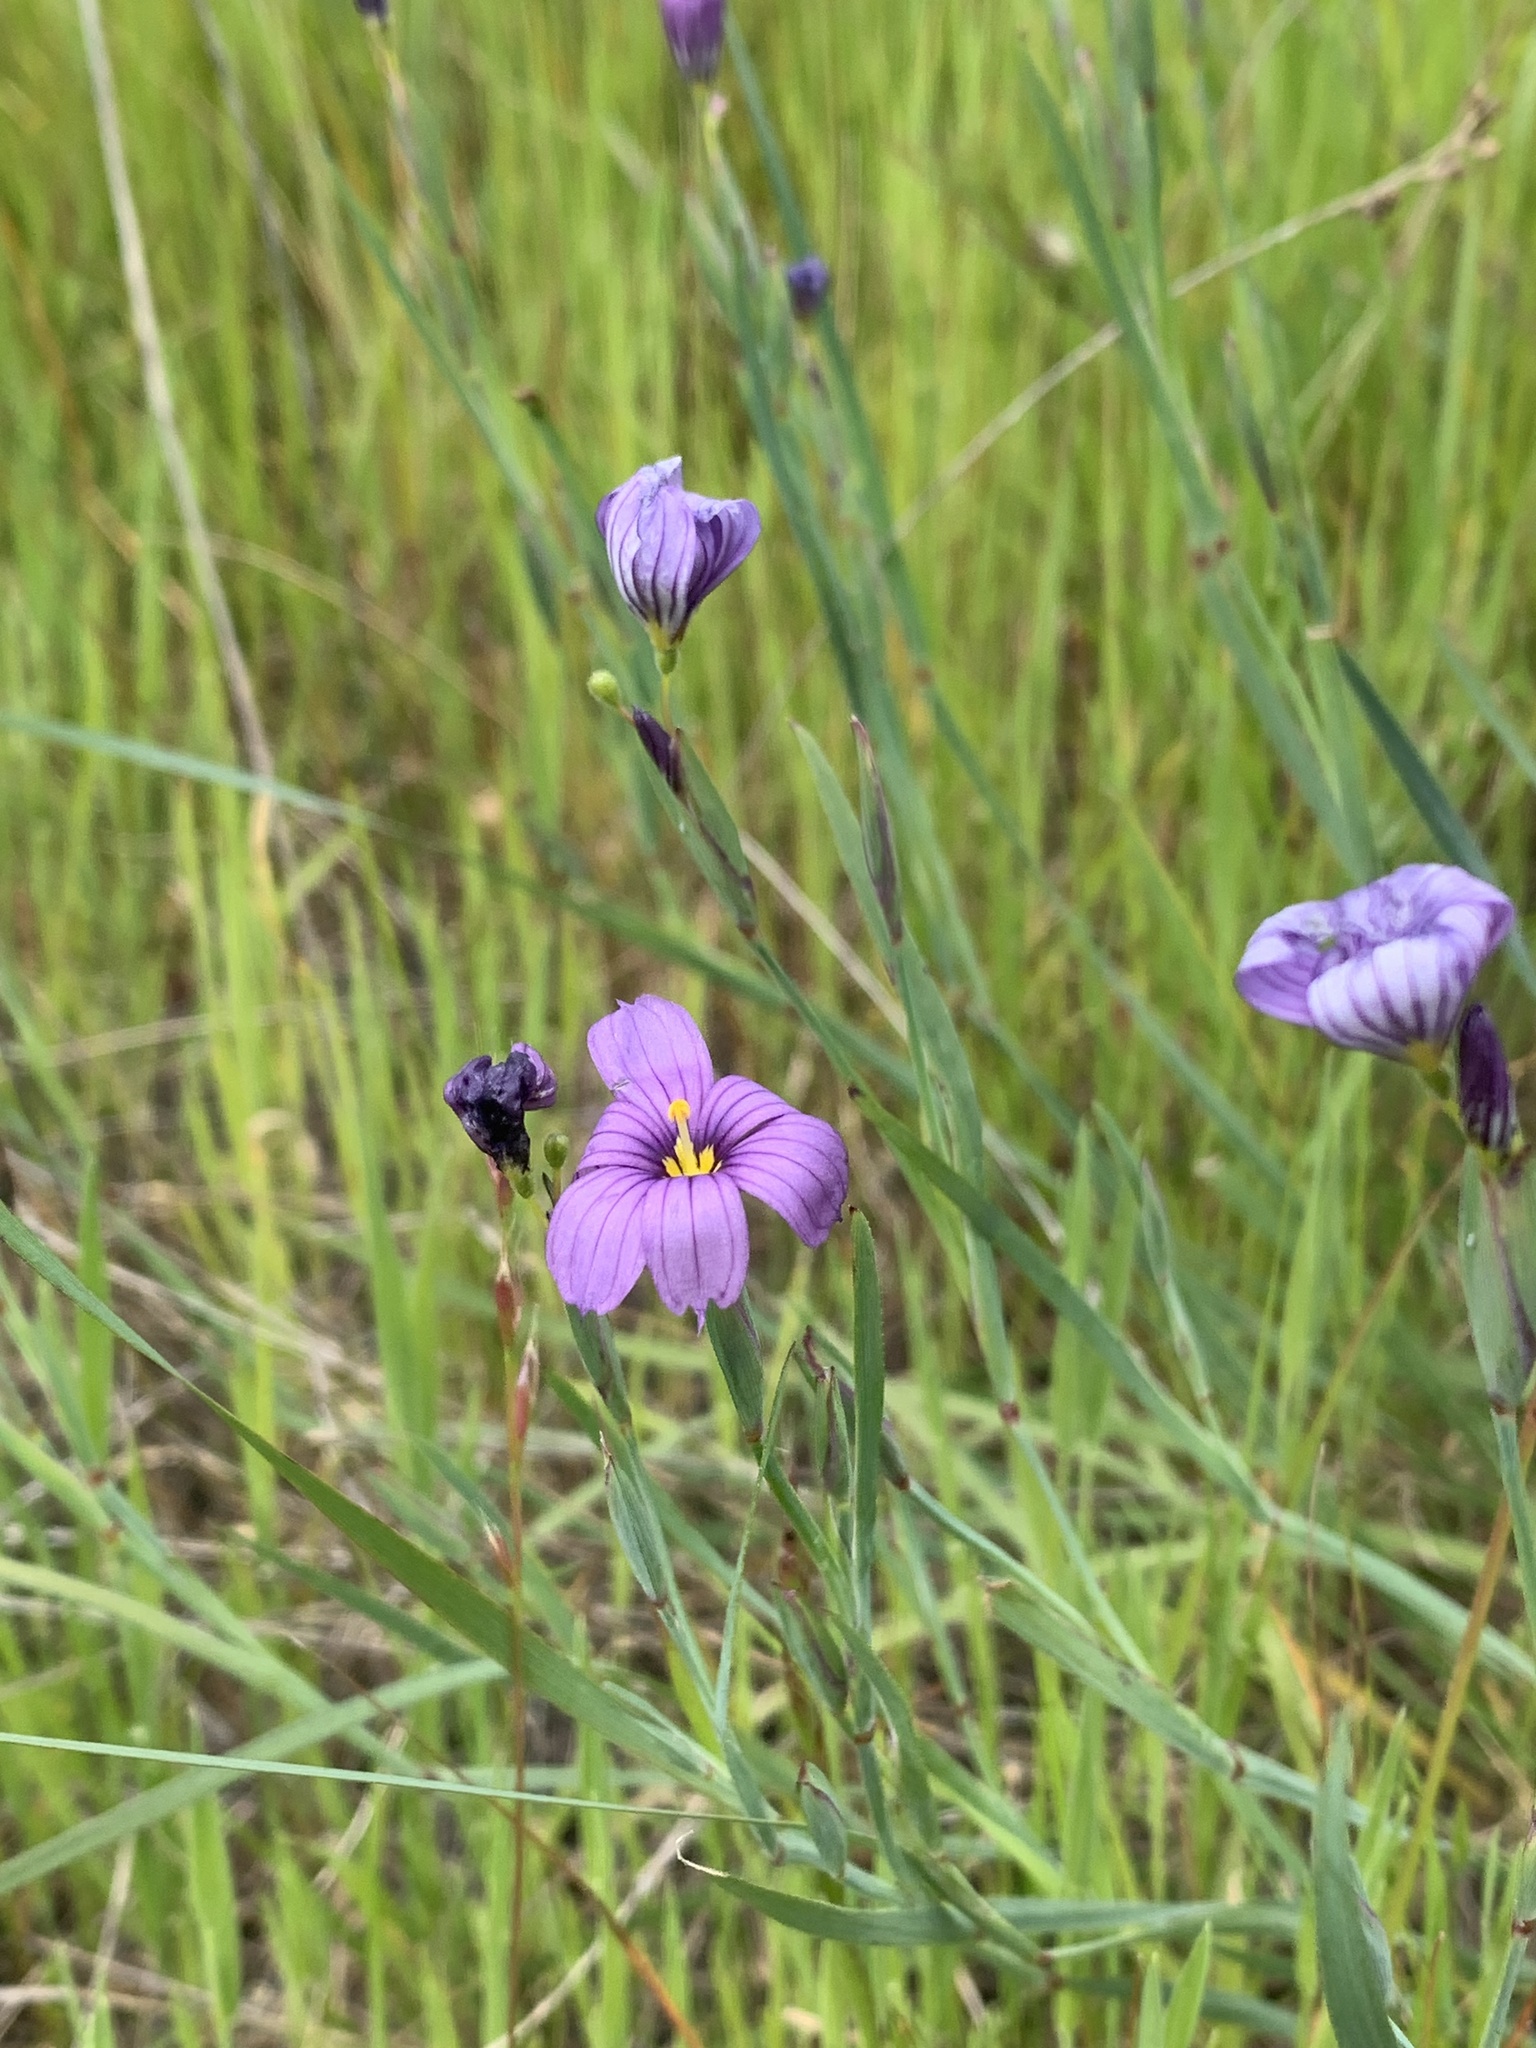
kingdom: Plantae
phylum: Tracheophyta
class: Liliopsida
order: Asparagales
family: Iridaceae
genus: Sisyrinchium
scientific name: Sisyrinchium bellum
